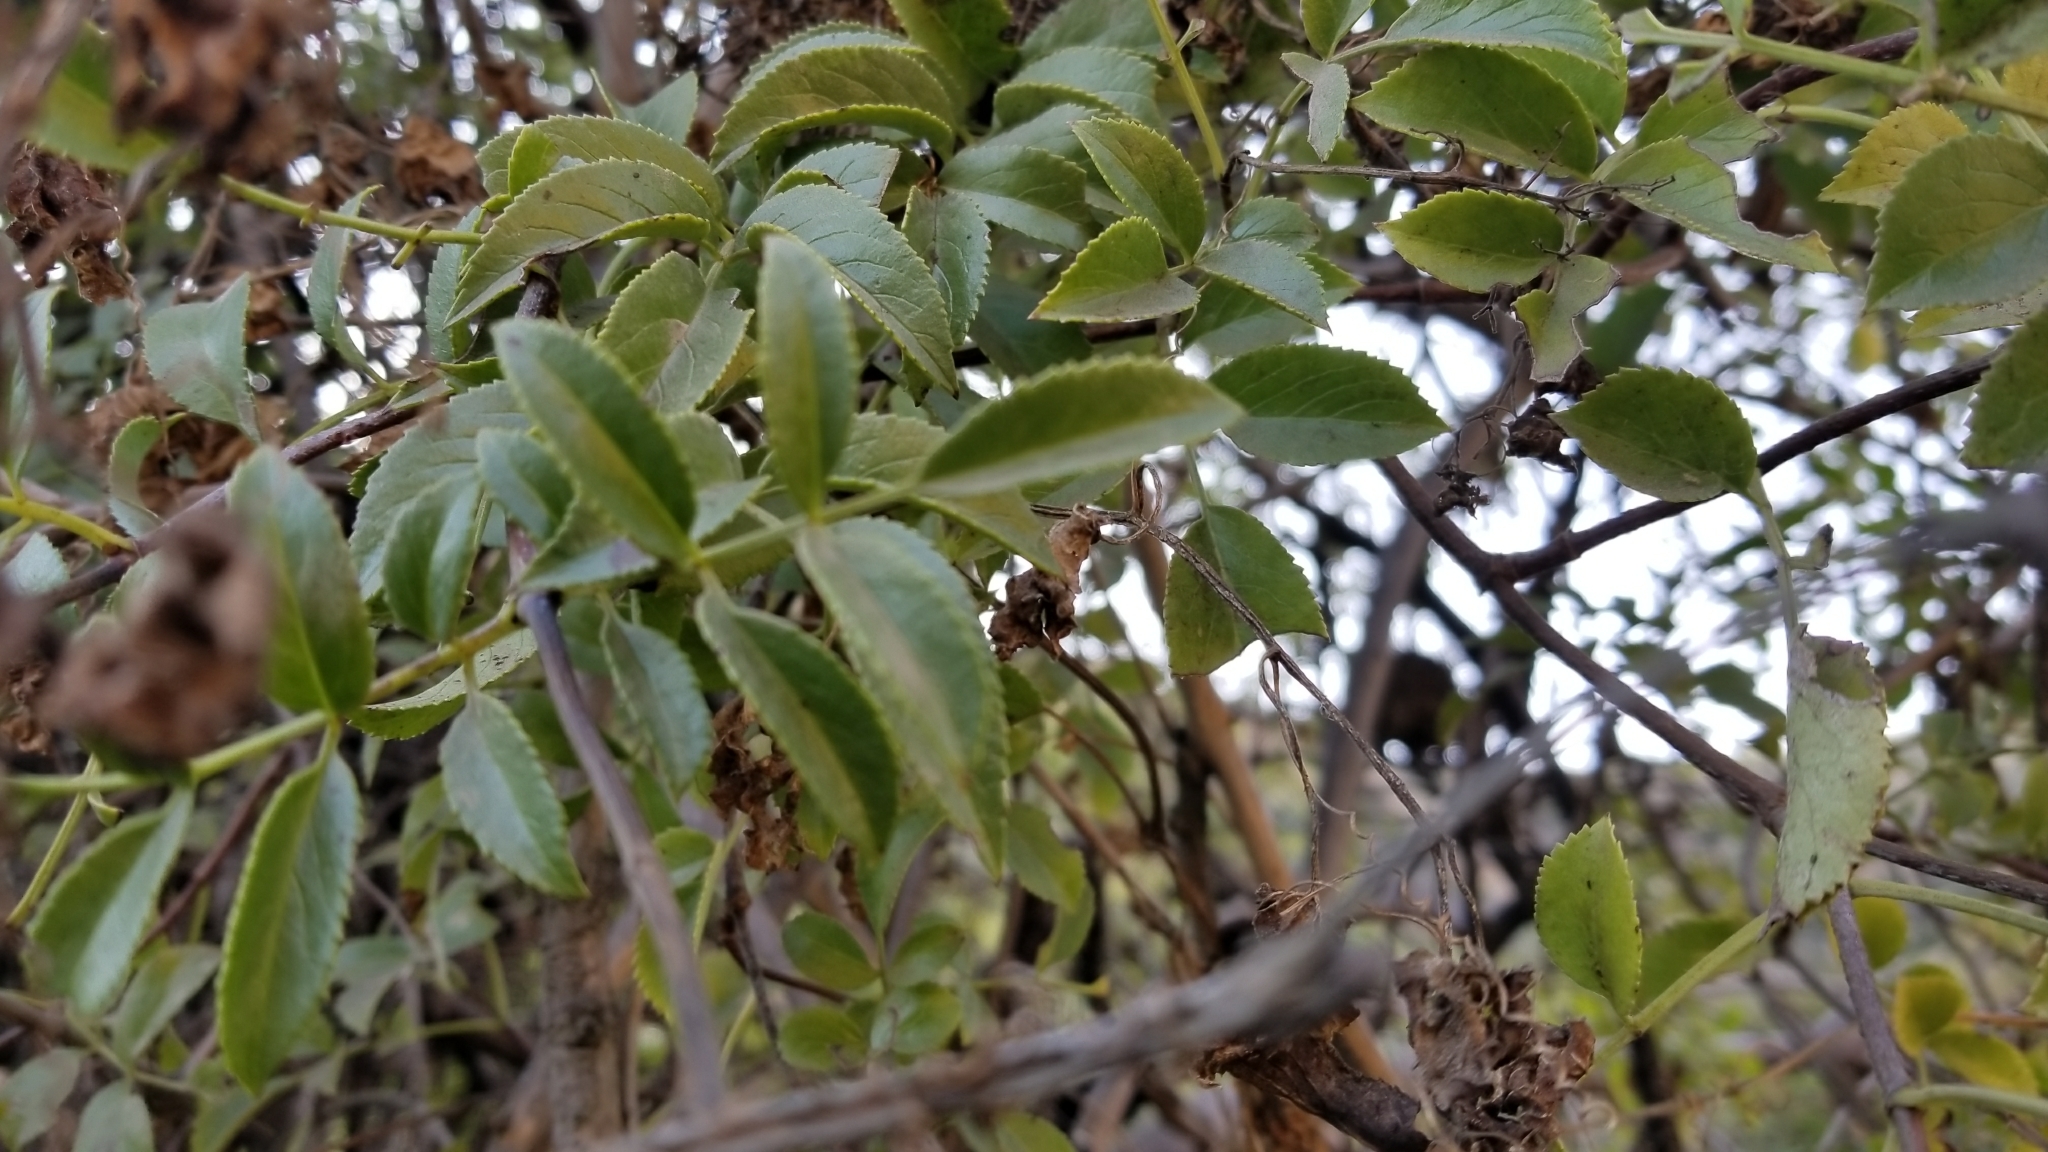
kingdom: Plantae
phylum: Tracheophyta
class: Magnoliopsida
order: Dipsacales
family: Viburnaceae
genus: Sambucus
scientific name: Sambucus cerulea
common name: Blue elder
